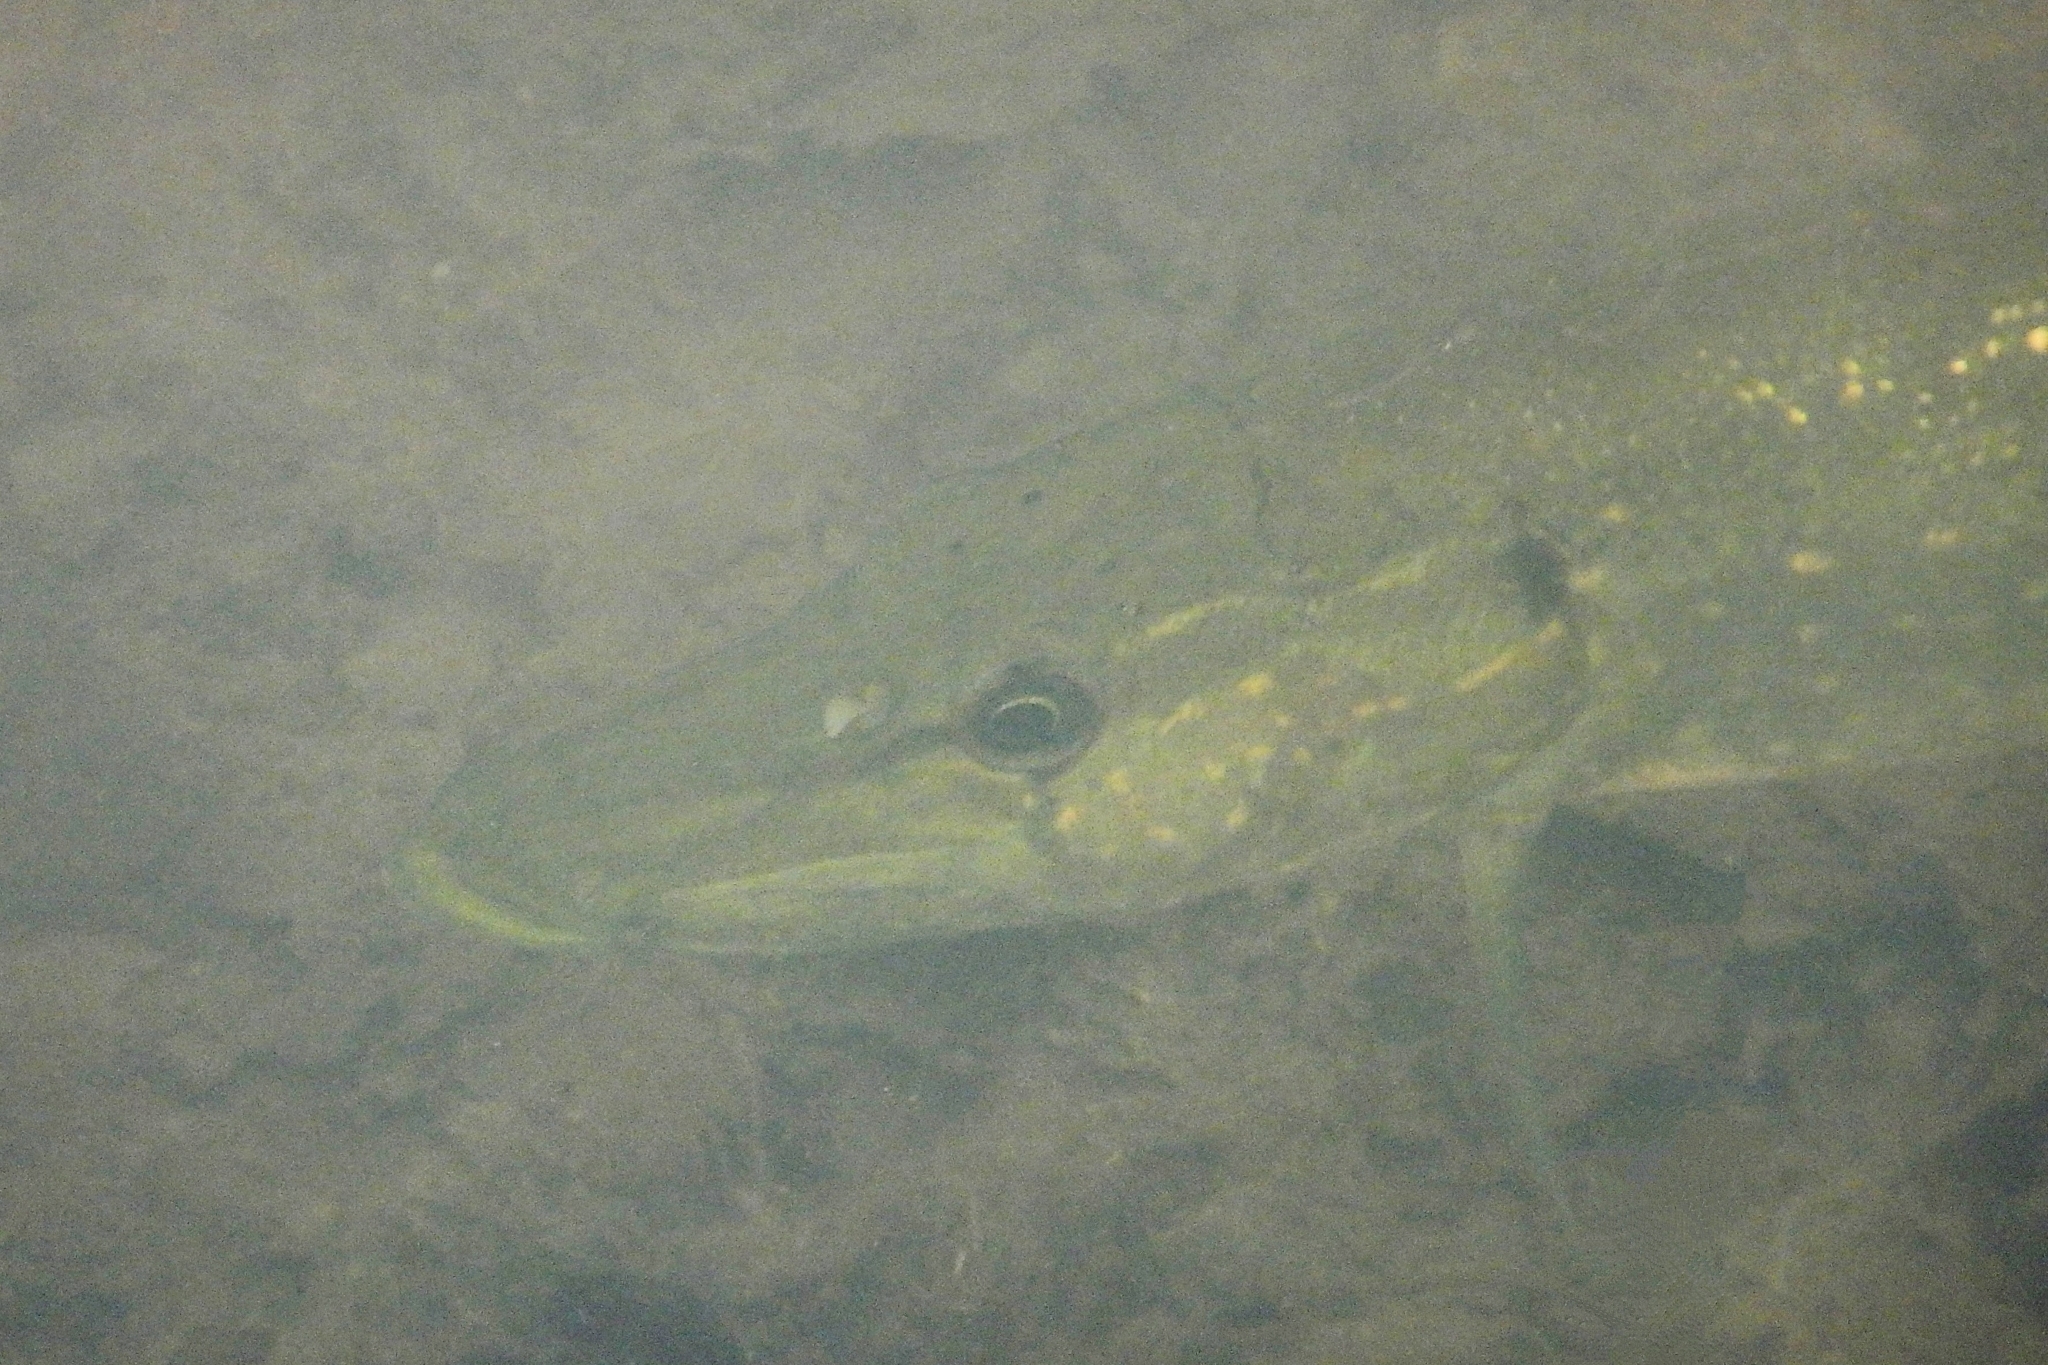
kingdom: Animalia
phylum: Chordata
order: Esociformes
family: Esocidae
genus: Esox
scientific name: Esox lucius
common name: Northern pike
